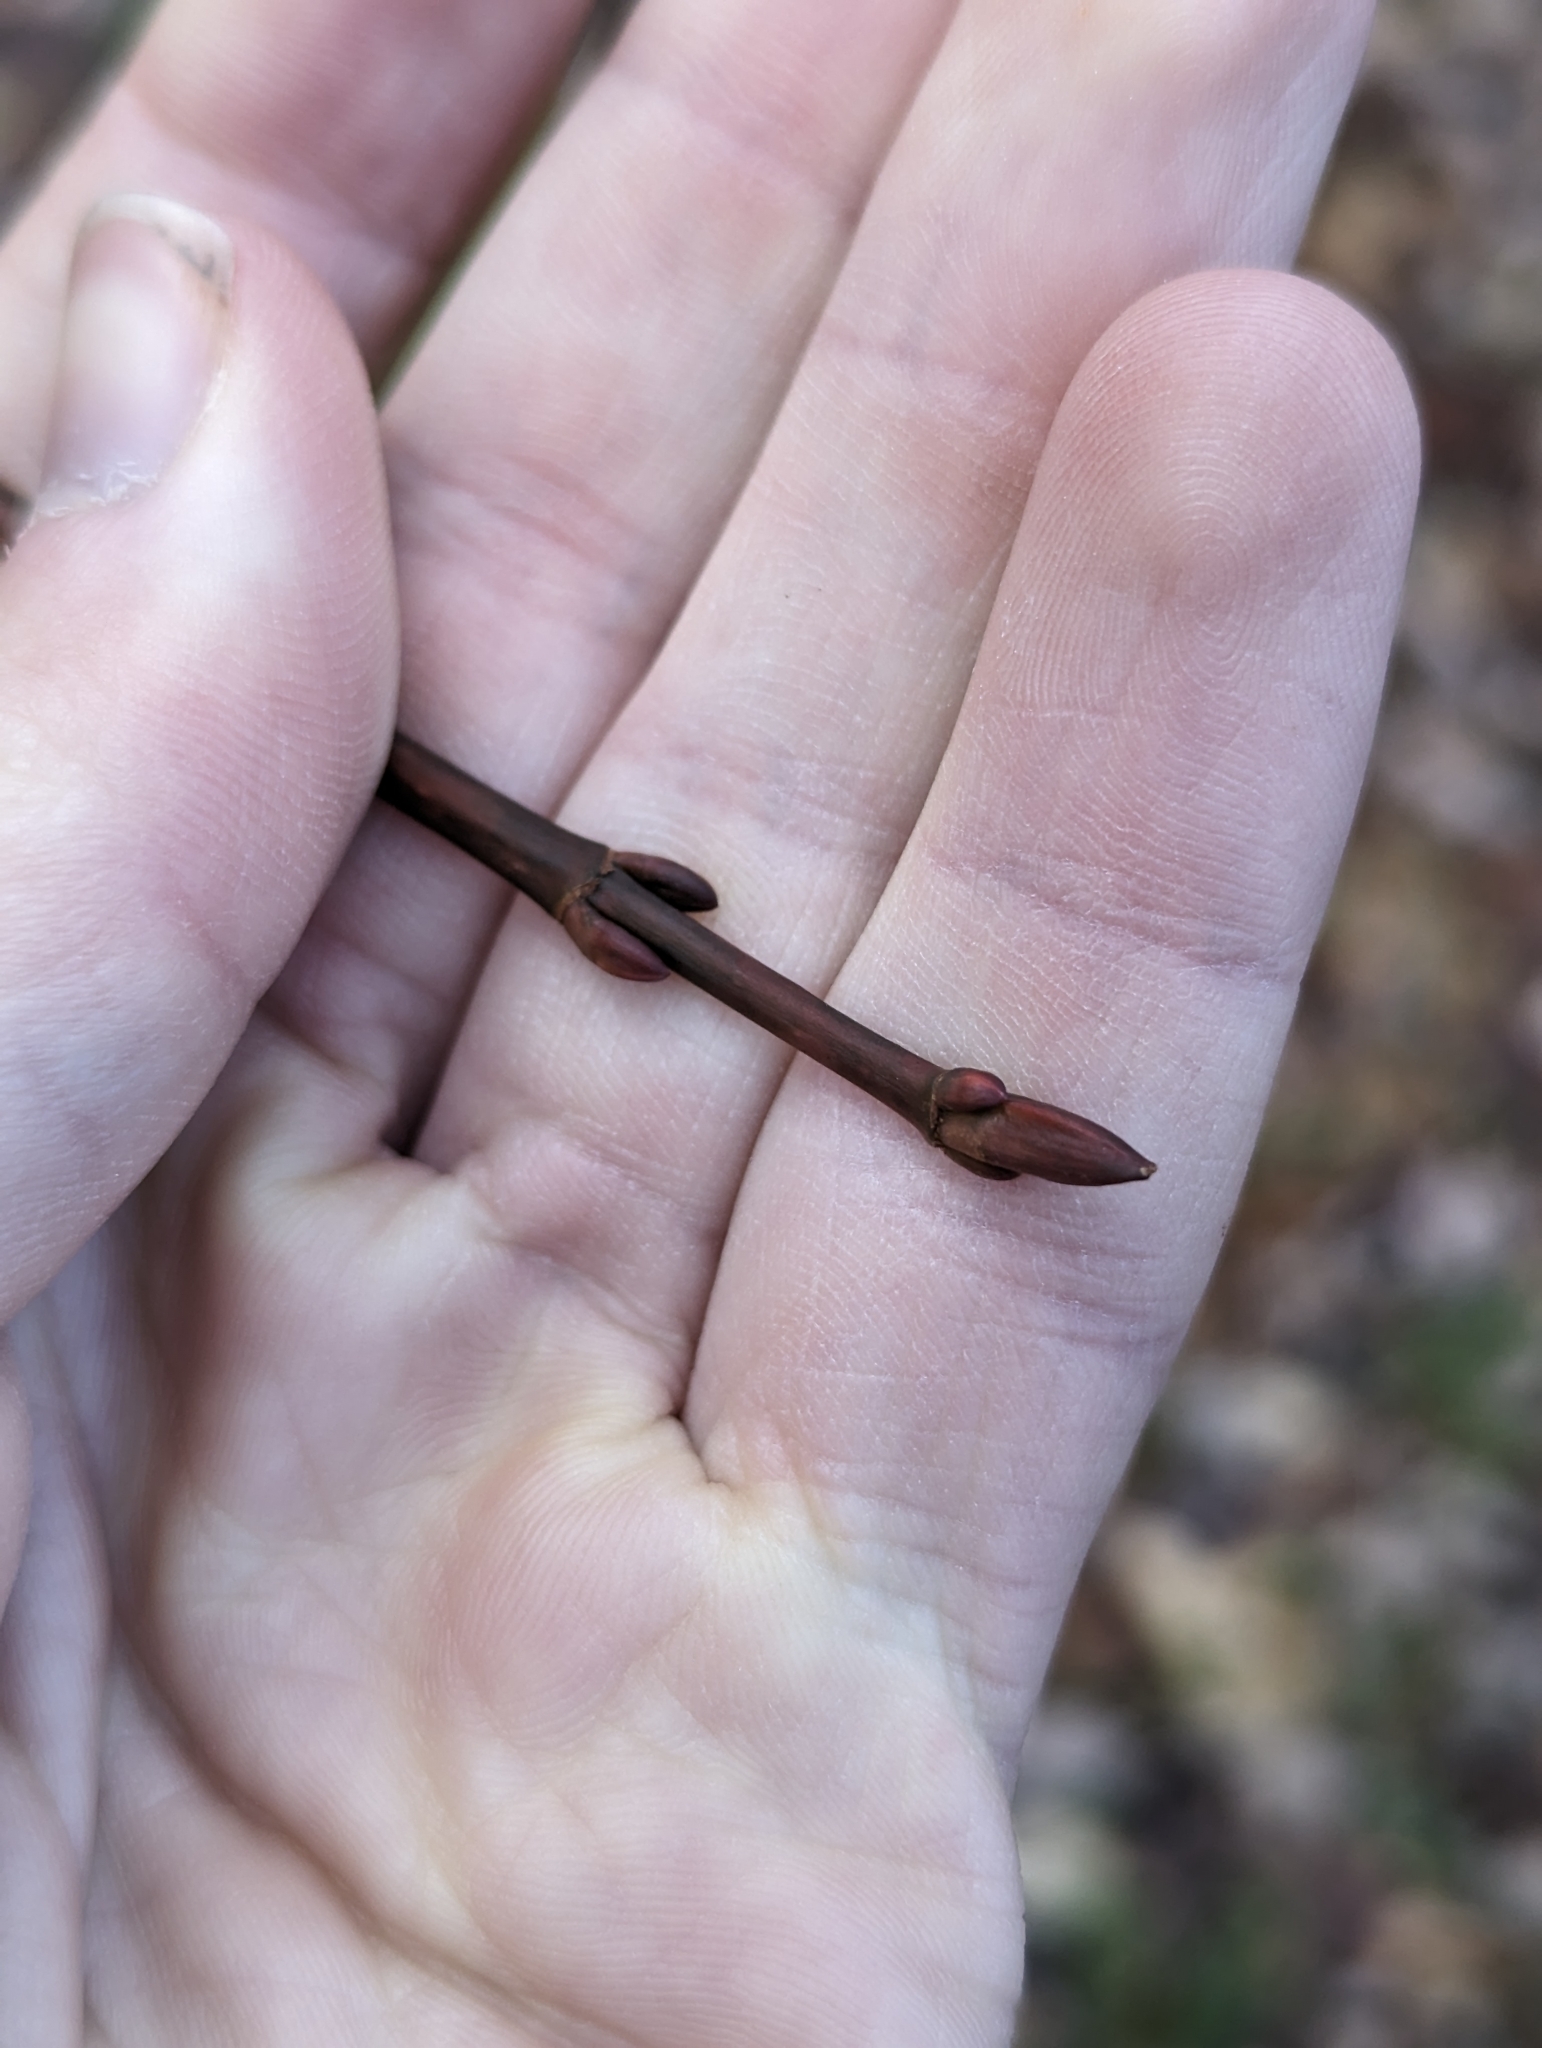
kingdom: Plantae
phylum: Tracheophyta
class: Magnoliopsida
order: Sapindales
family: Sapindaceae
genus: Acer
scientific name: Acer pensylvanicum
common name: Moosewood
